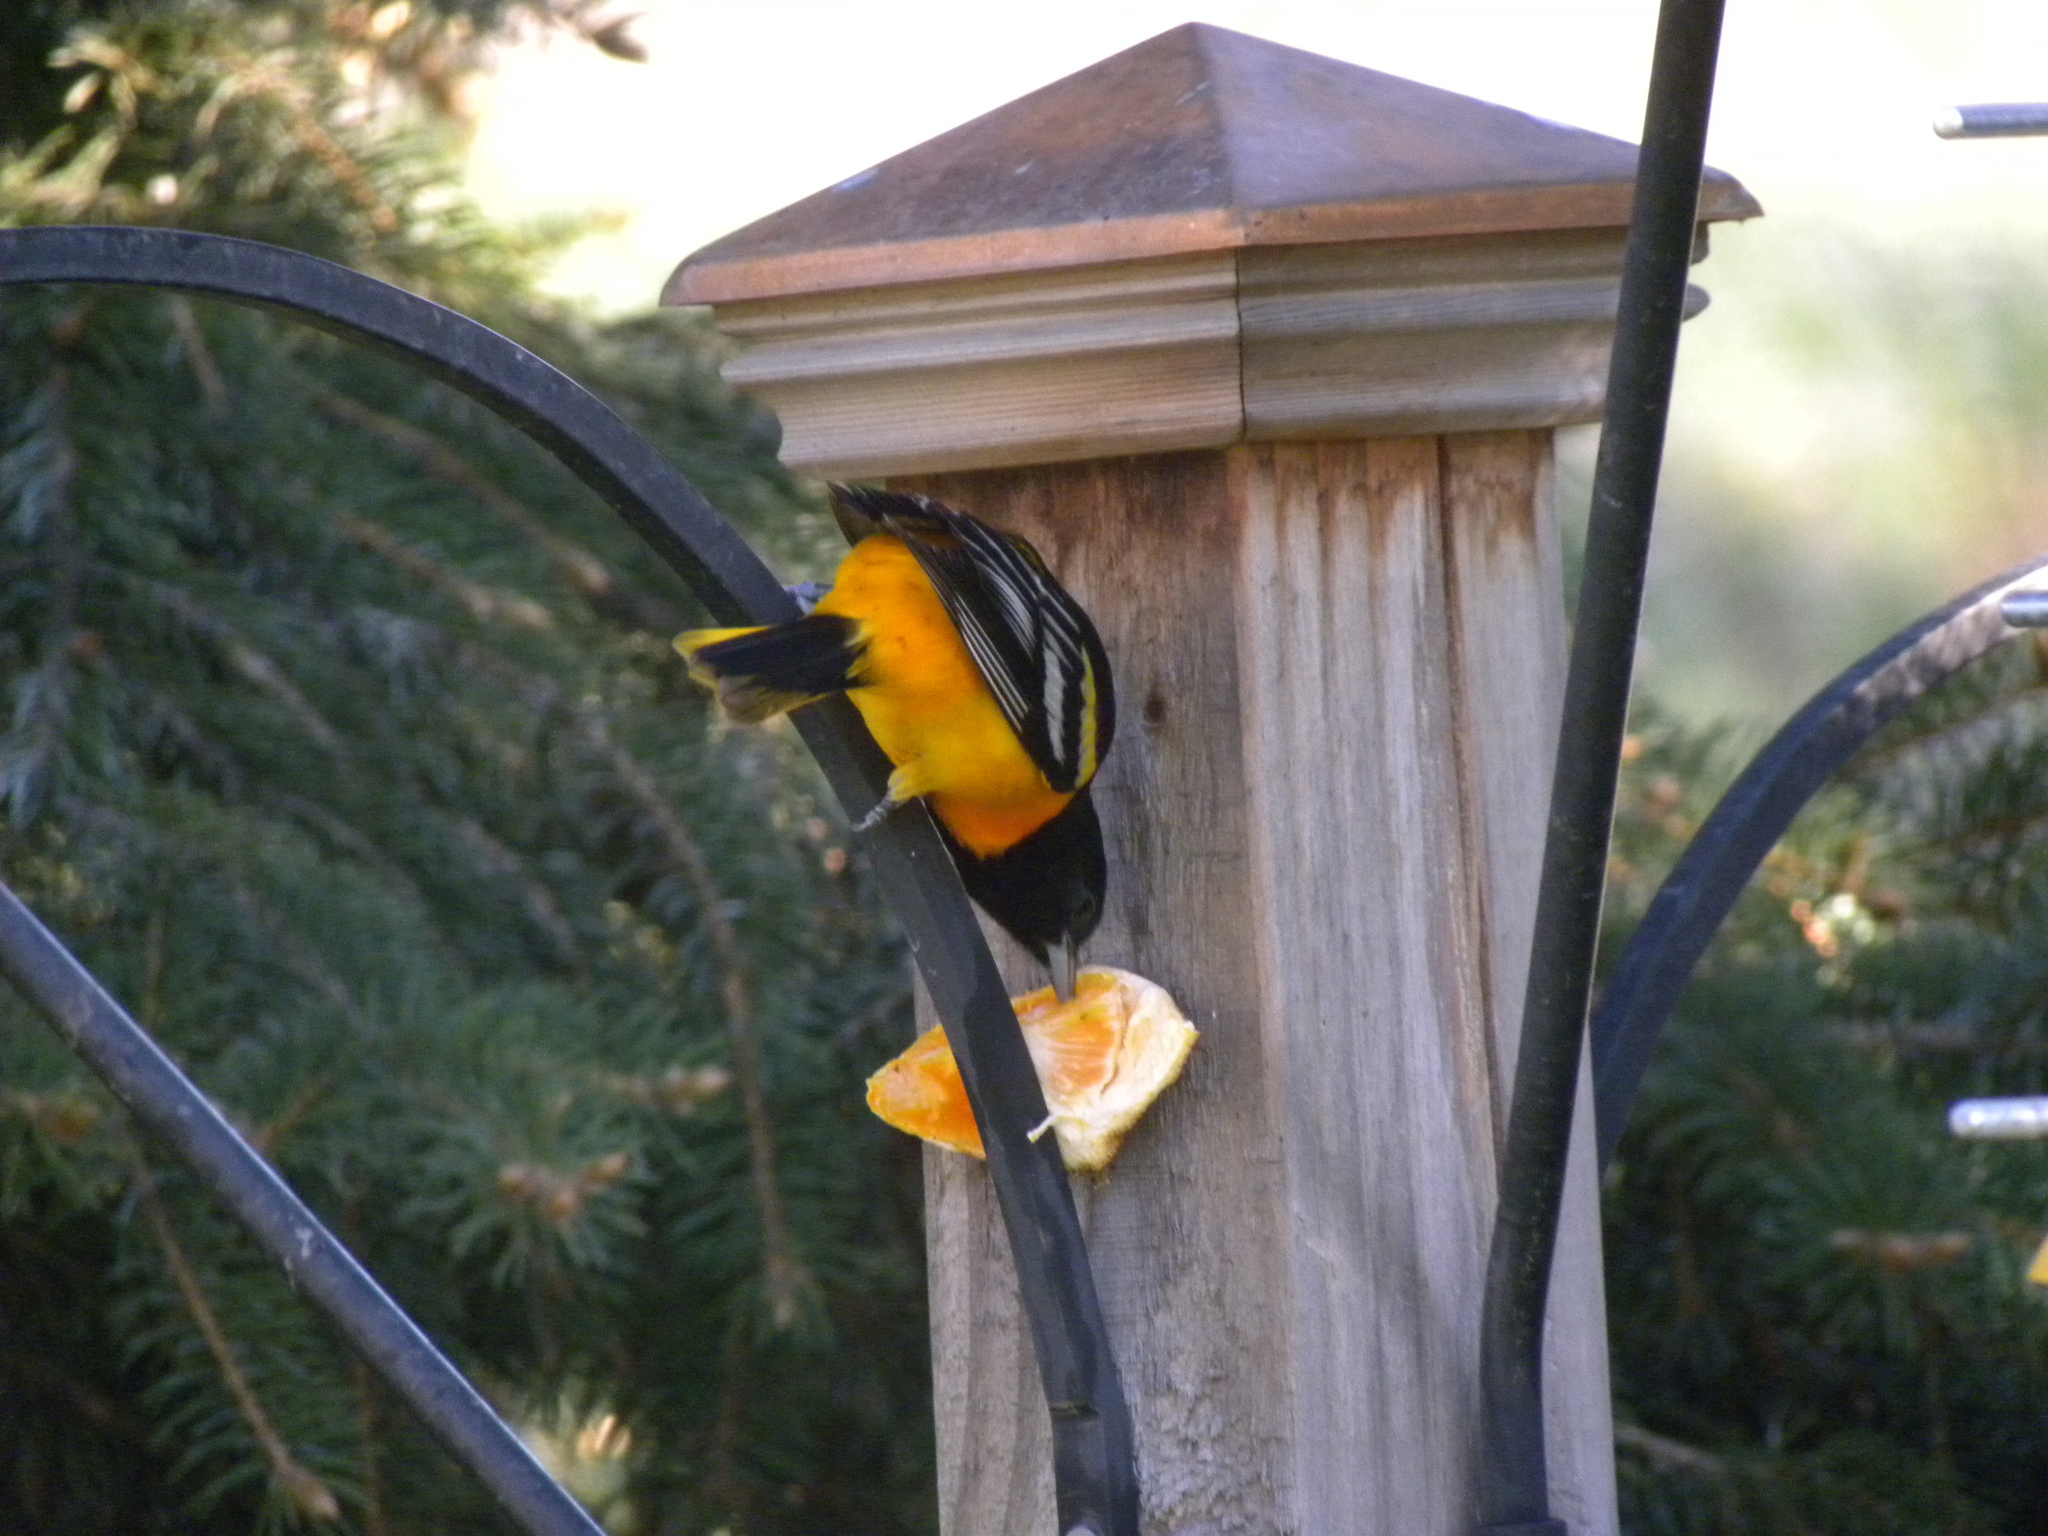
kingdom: Animalia
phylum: Chordata
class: Aves
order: Passeriformes
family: Icteridae
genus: Icterus
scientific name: Icterus galbula
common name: Baltimore oriole
